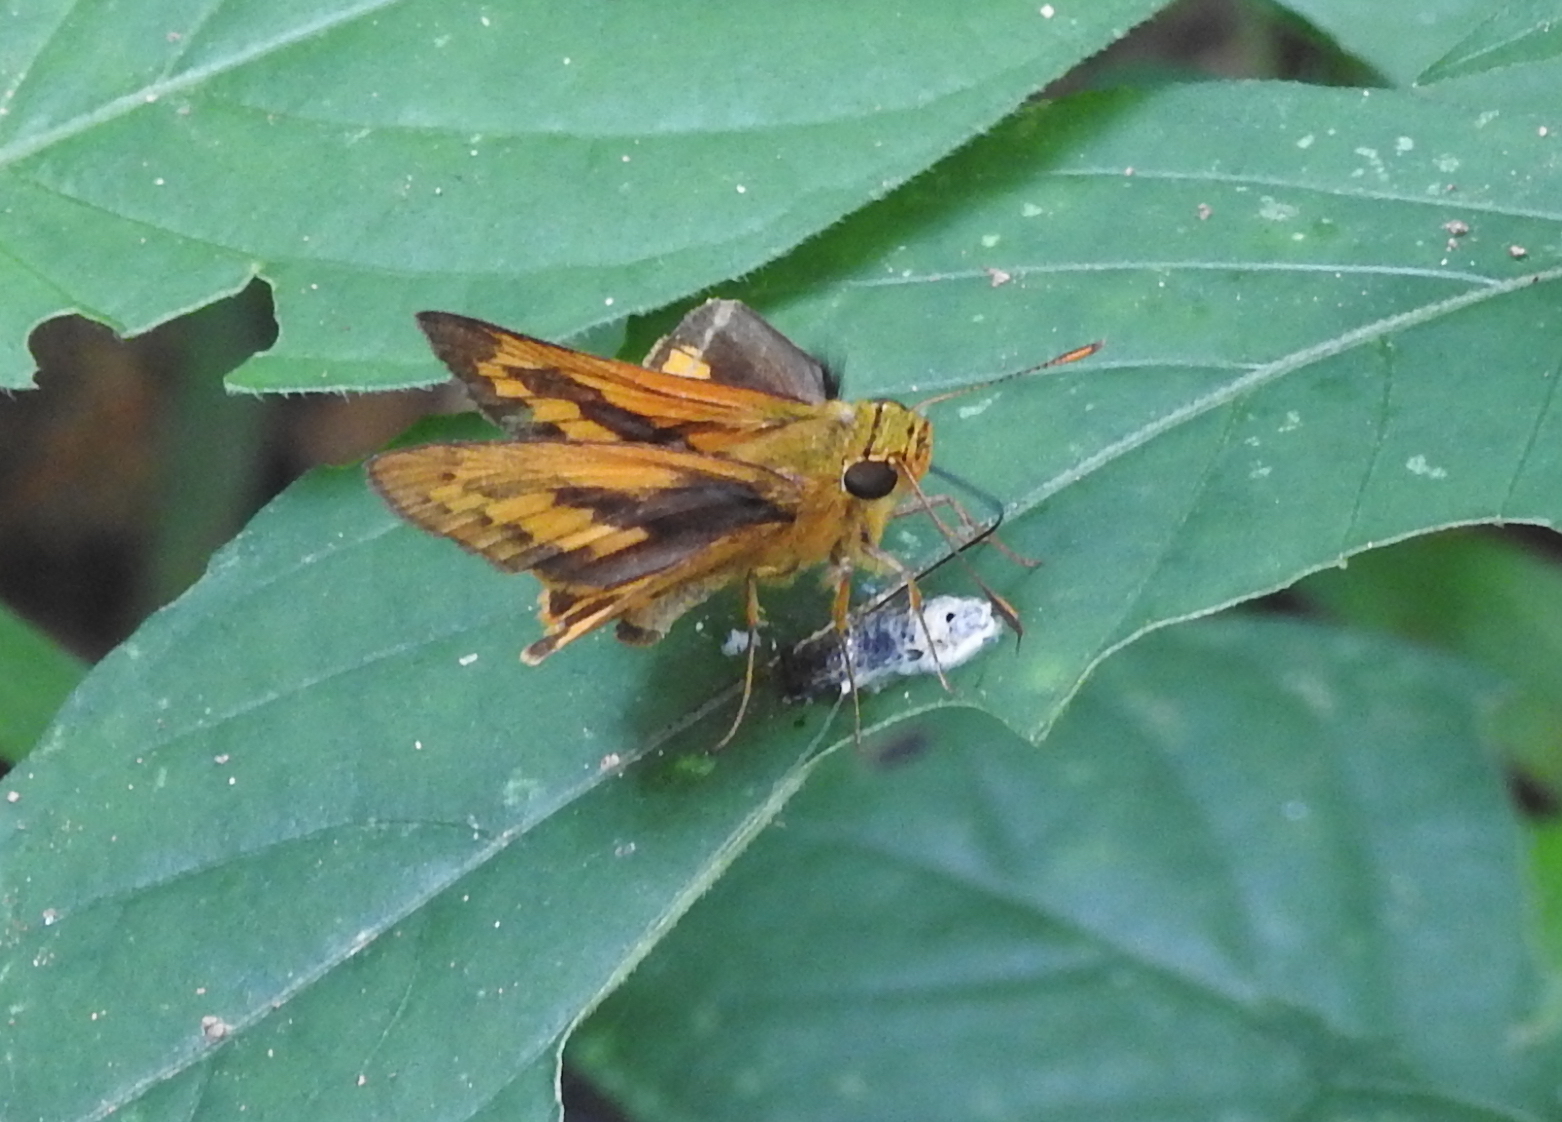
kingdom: Animalia
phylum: Arthropoda
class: Insecta
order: Lepidoptera
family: Hesperiidae
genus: Telicota
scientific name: Telicota besta
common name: Hainan palm dart
